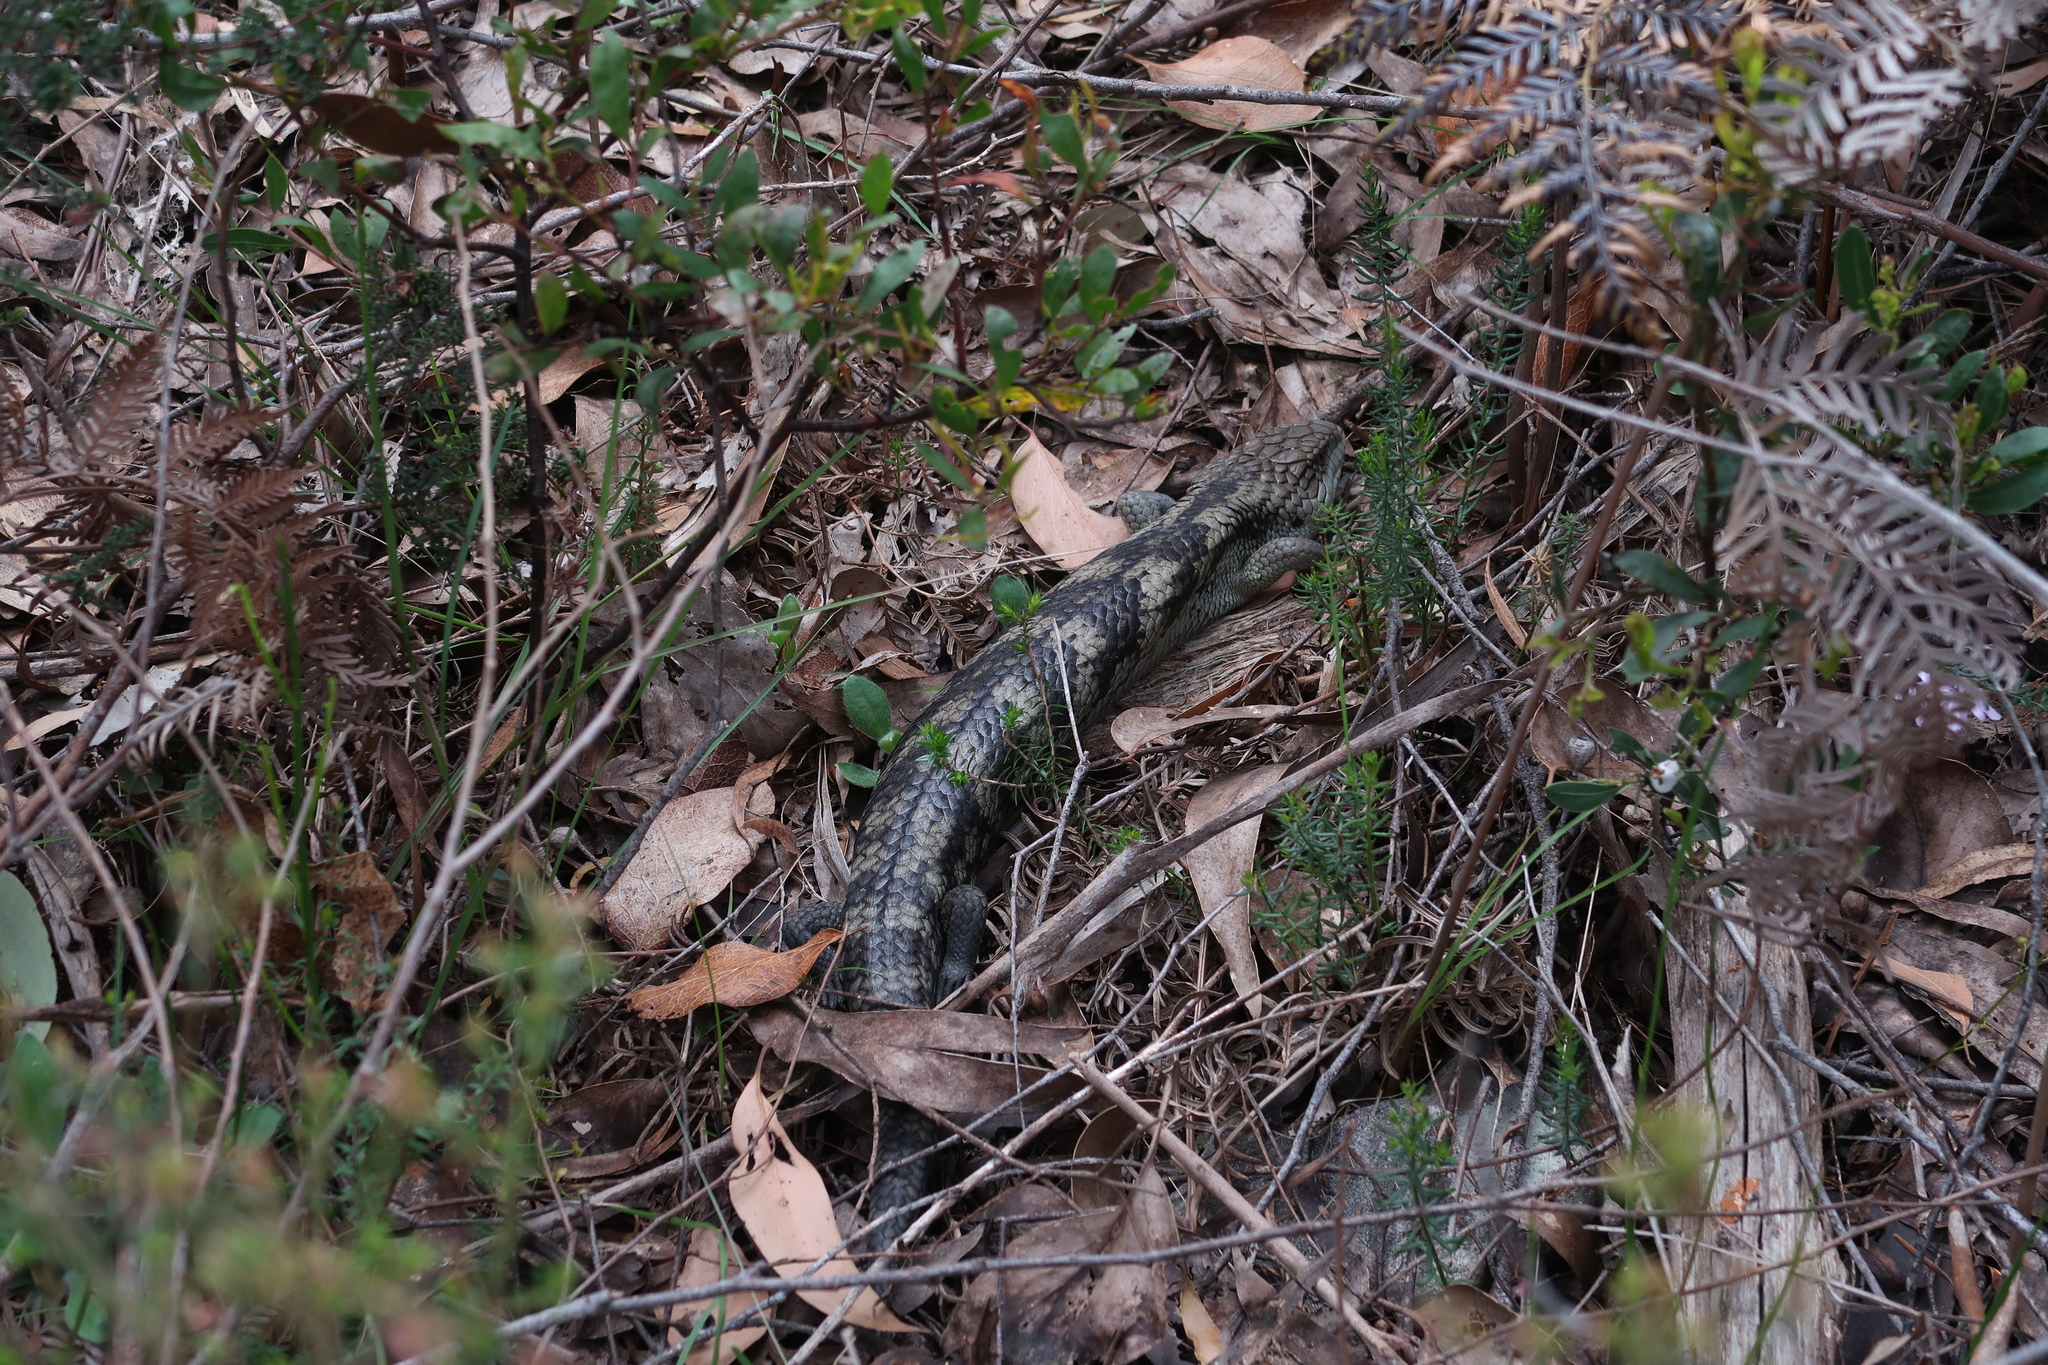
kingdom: Animalia
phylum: Chordata
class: Squamata
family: Scincidae
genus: Tiliqua
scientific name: Tiliqua nigrolutea
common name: Blotched blue-tongued lizard
